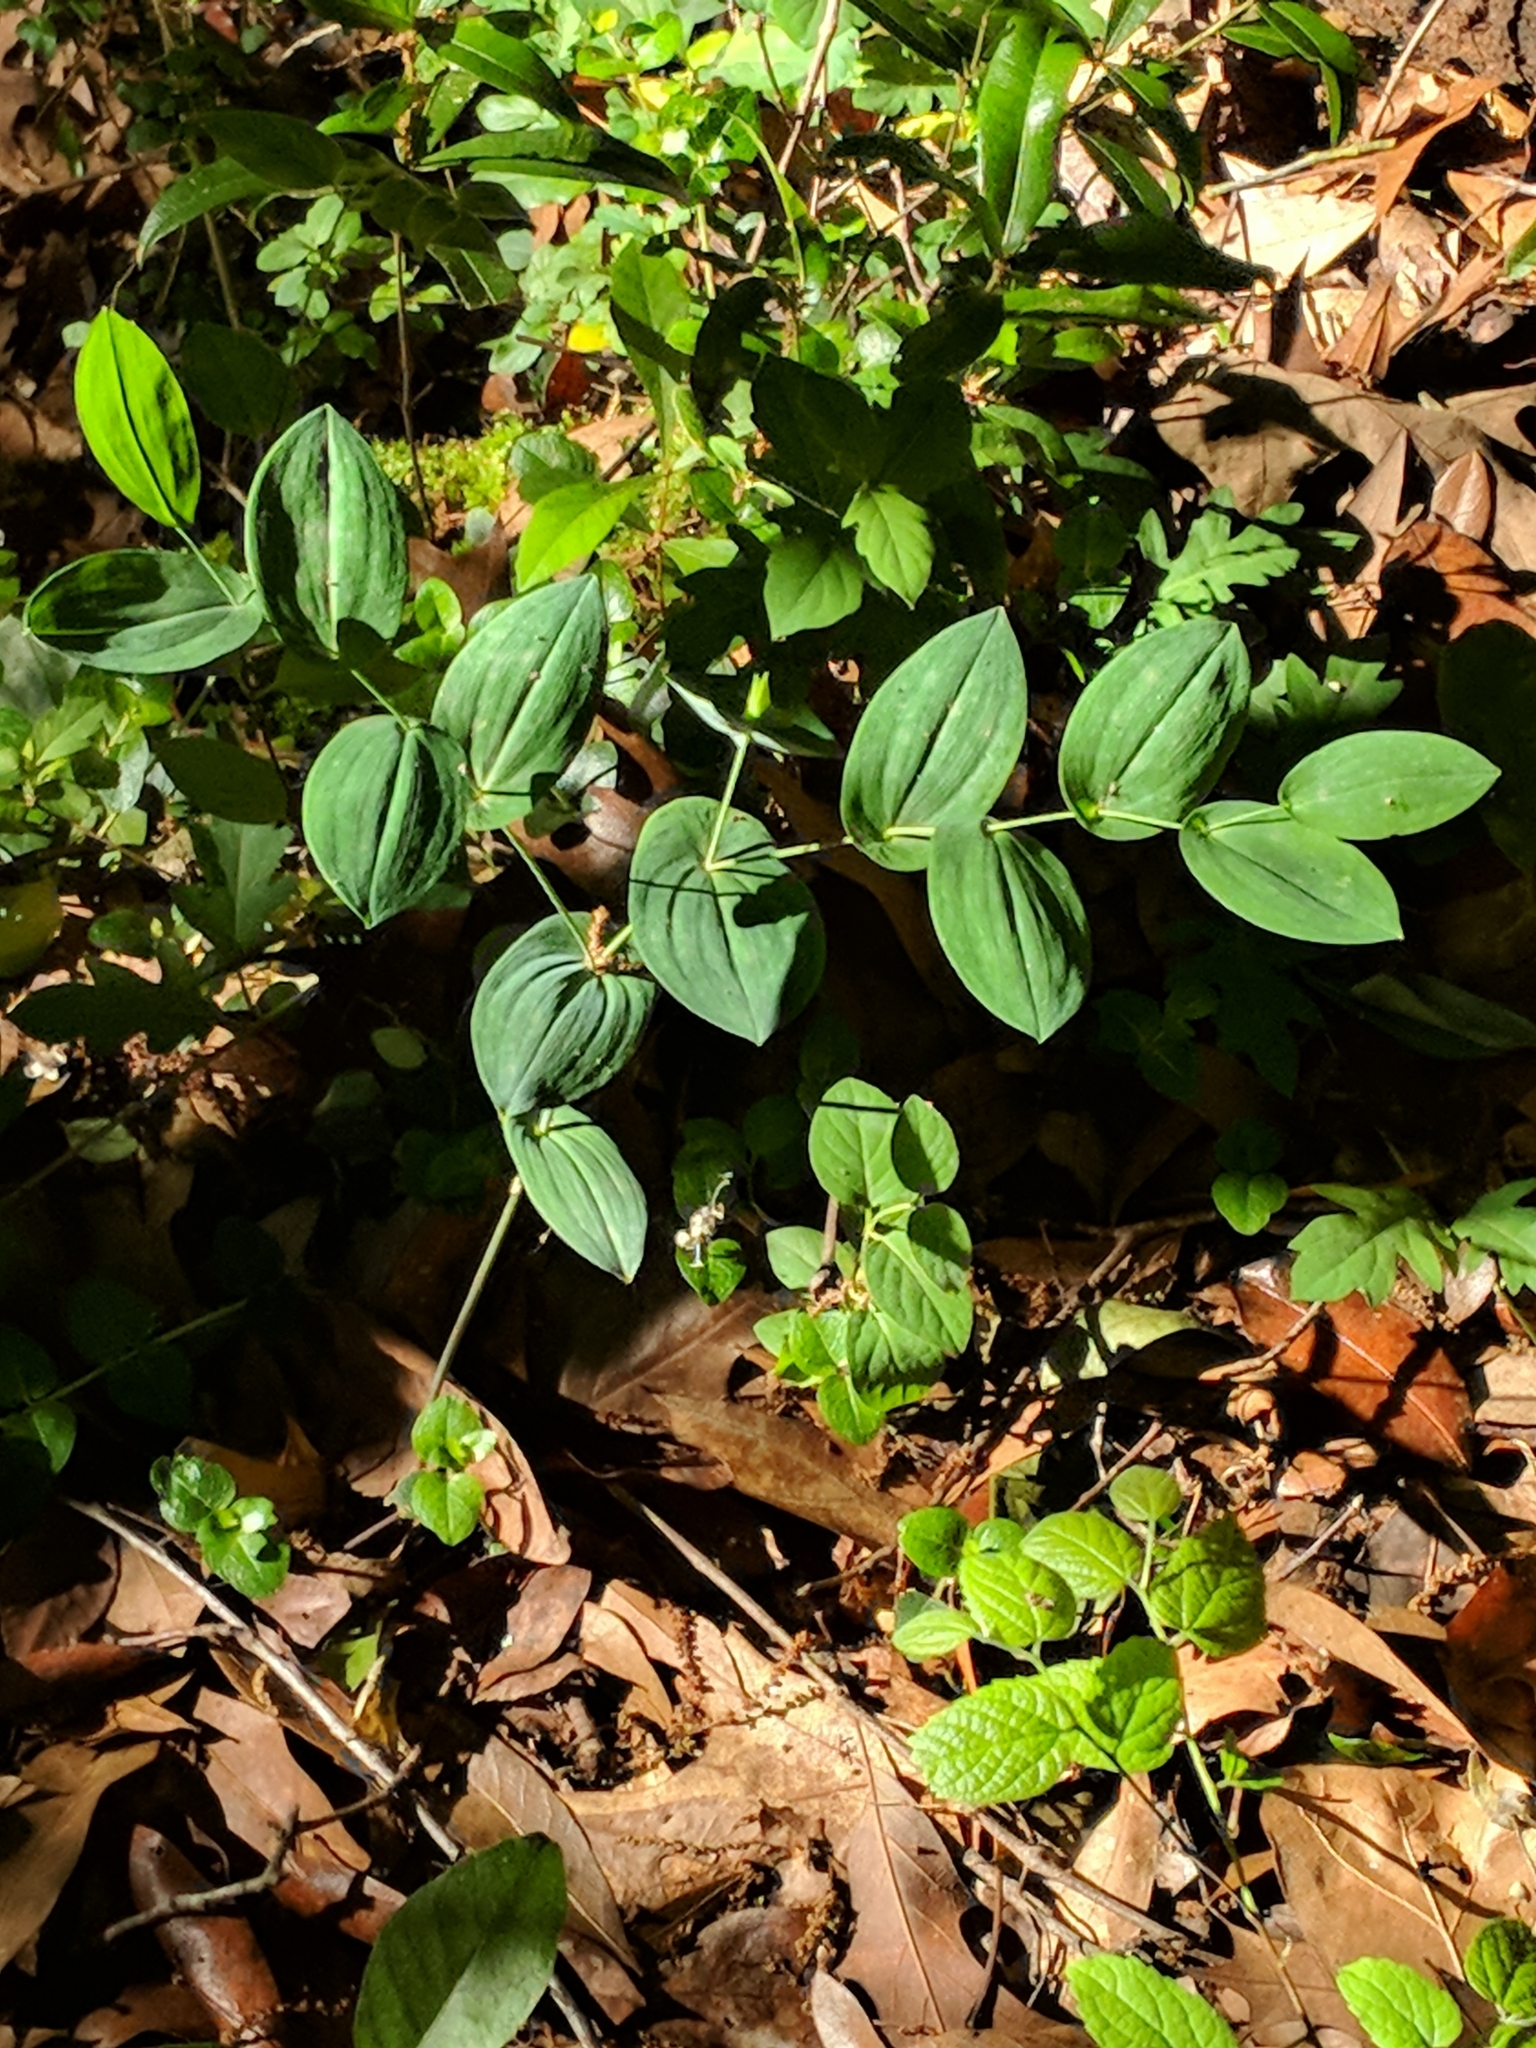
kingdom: Plantae
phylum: Tracheophyta
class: Liliopsida
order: Liliales
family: Colchicaceae
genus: Uvularia
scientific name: Uvularia perfoliata
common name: Perfoliate bellwort
